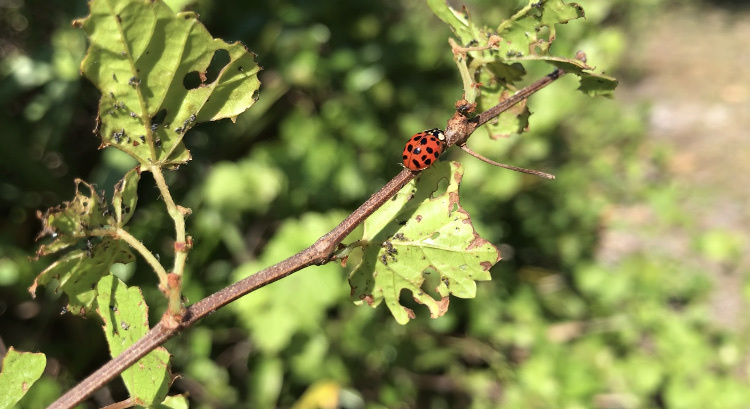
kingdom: Animalia
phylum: Arthropoda
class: Insecta
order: Coleoptera
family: Coccinellidae
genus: Harmonia
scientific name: Harmonia axyridis
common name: Harlequin ladybird
